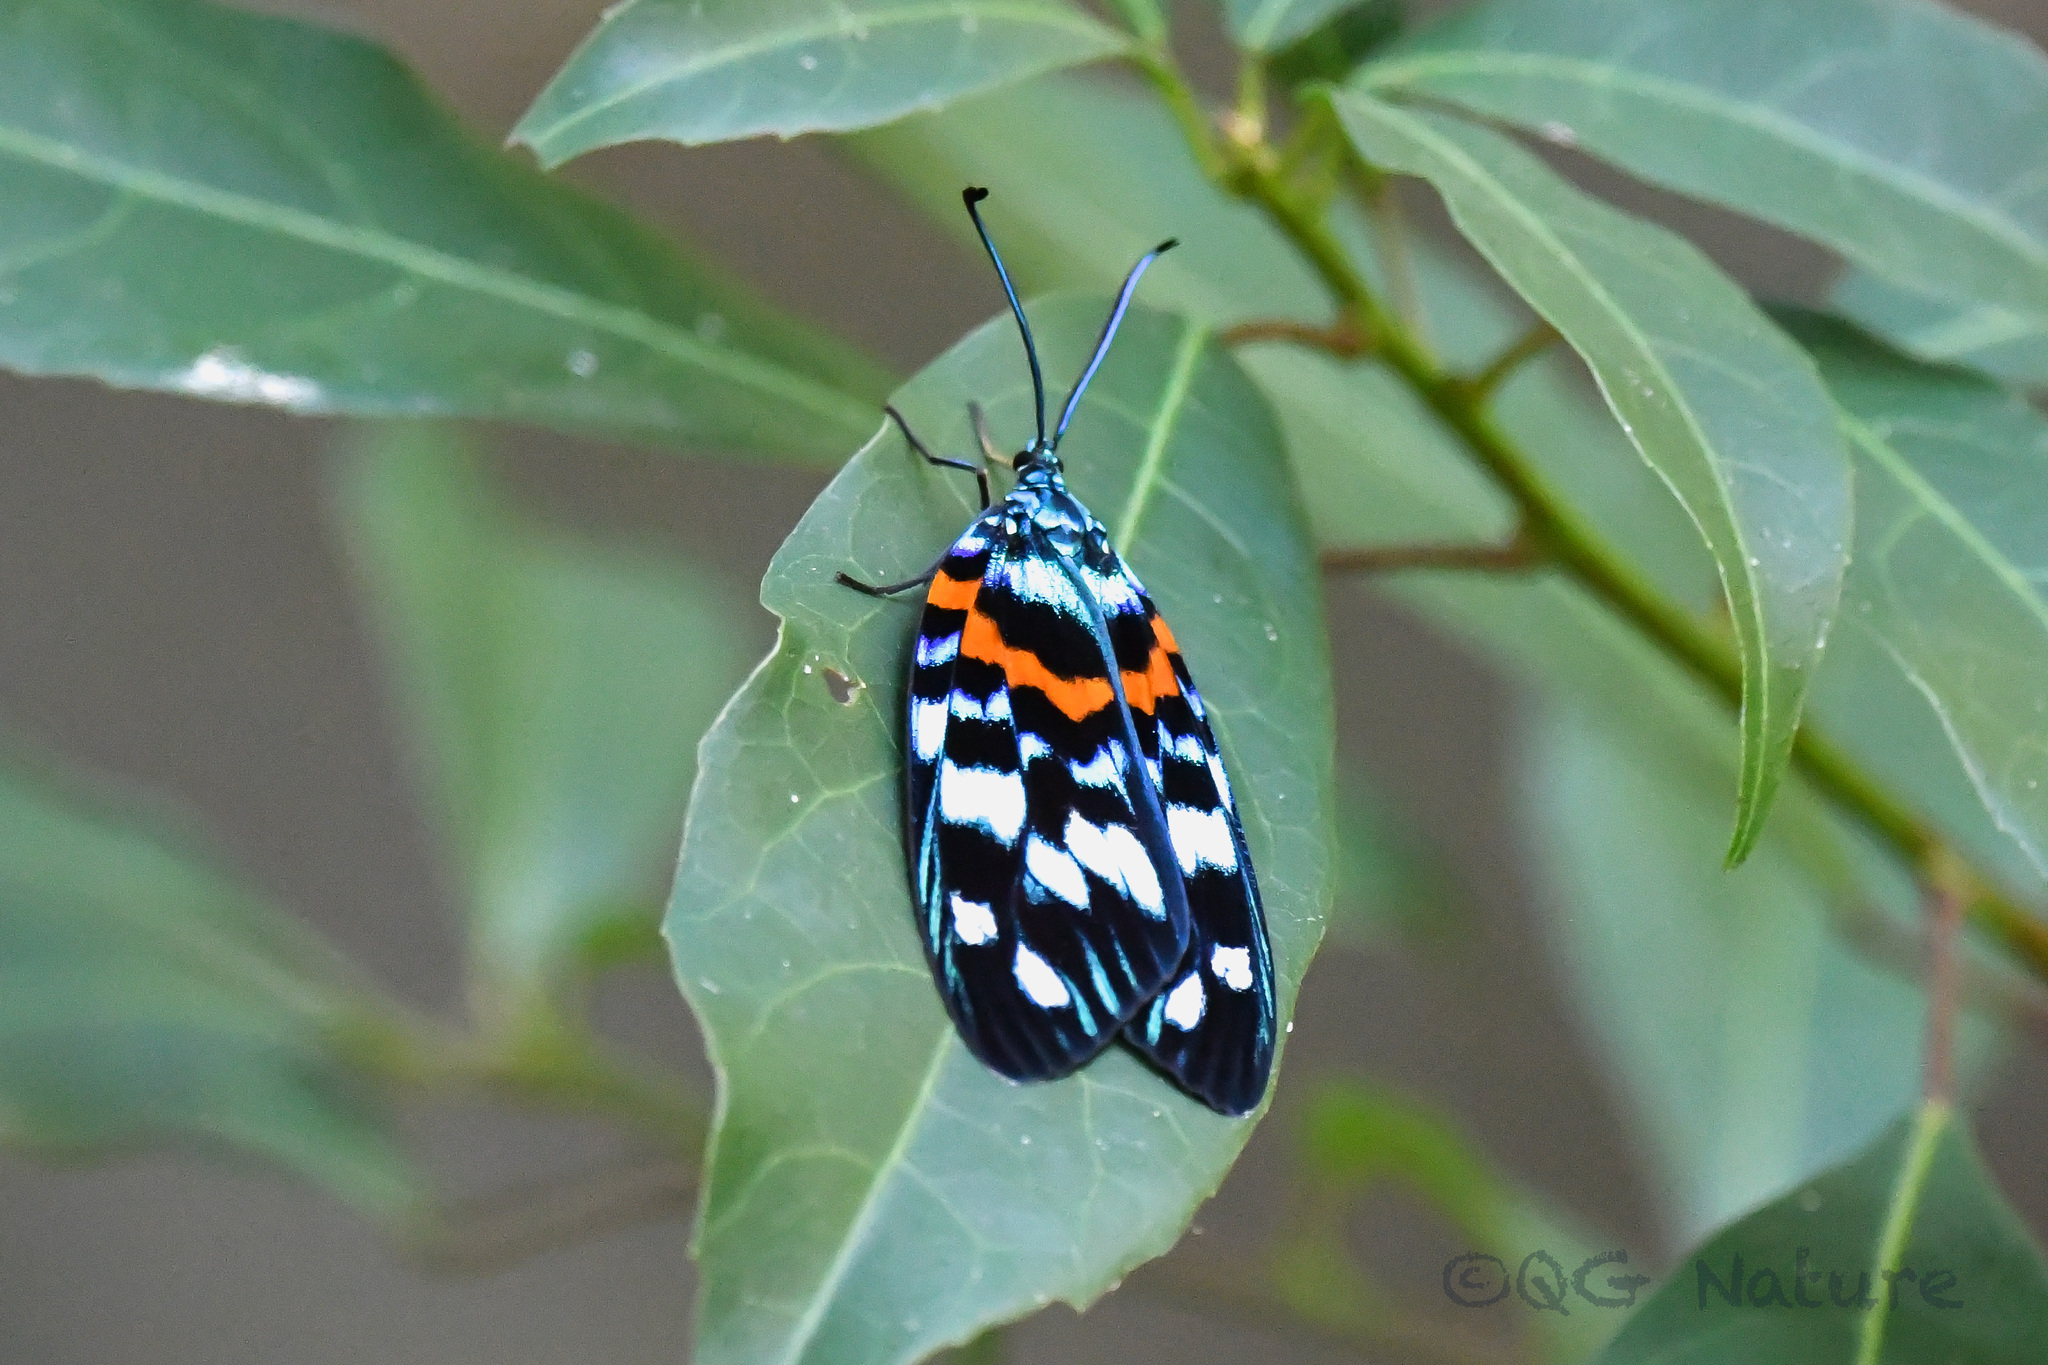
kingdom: Animalia
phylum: Arthropoda
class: Insecta
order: Lepidoptera
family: Zygaenidae
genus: Erasmia
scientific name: Erasmia pulchella
